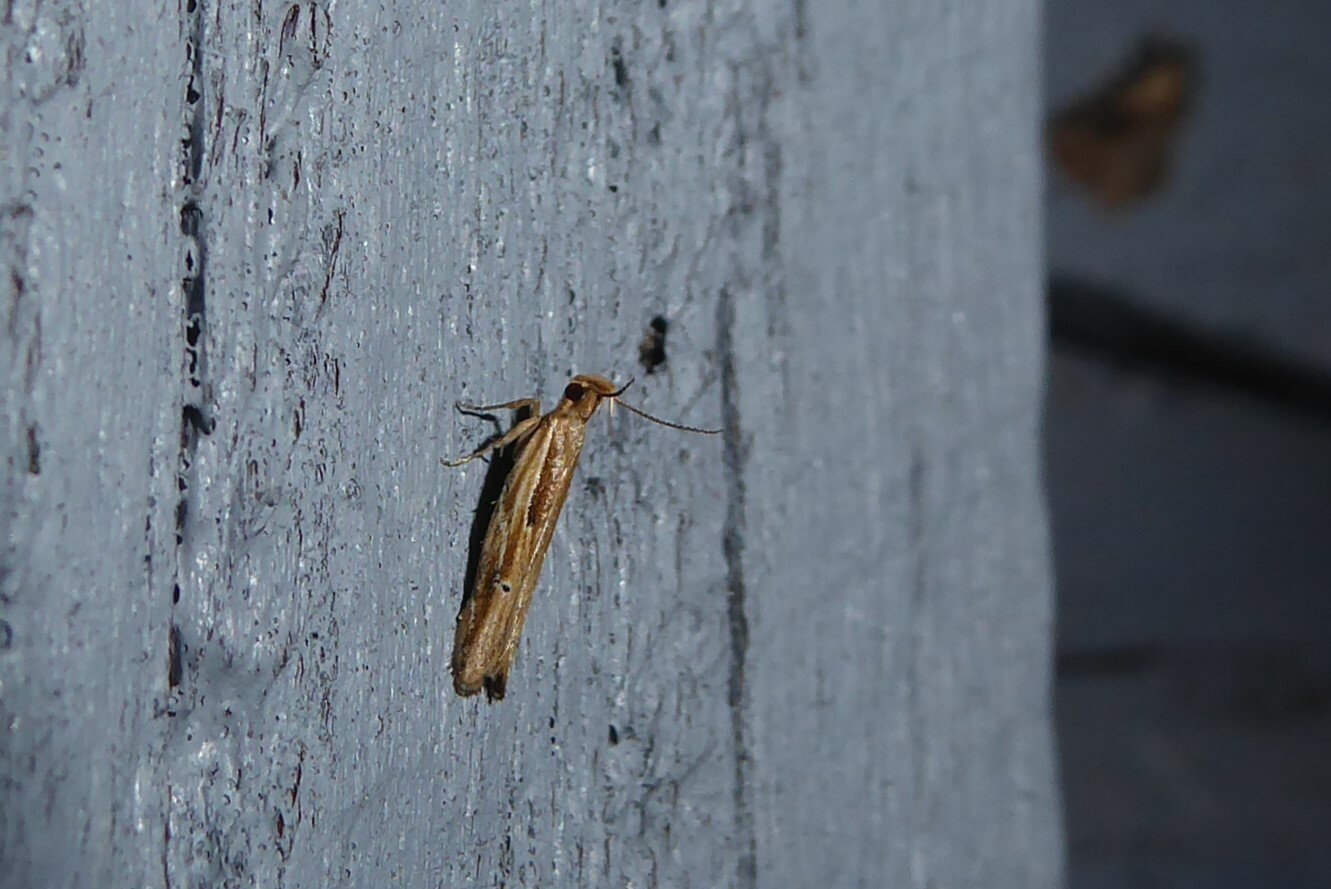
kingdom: Animalia
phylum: Arthropoda
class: Insecta
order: Lepidoptera
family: Depressariidae
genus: Eutorna
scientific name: Eutorna symmorpha
